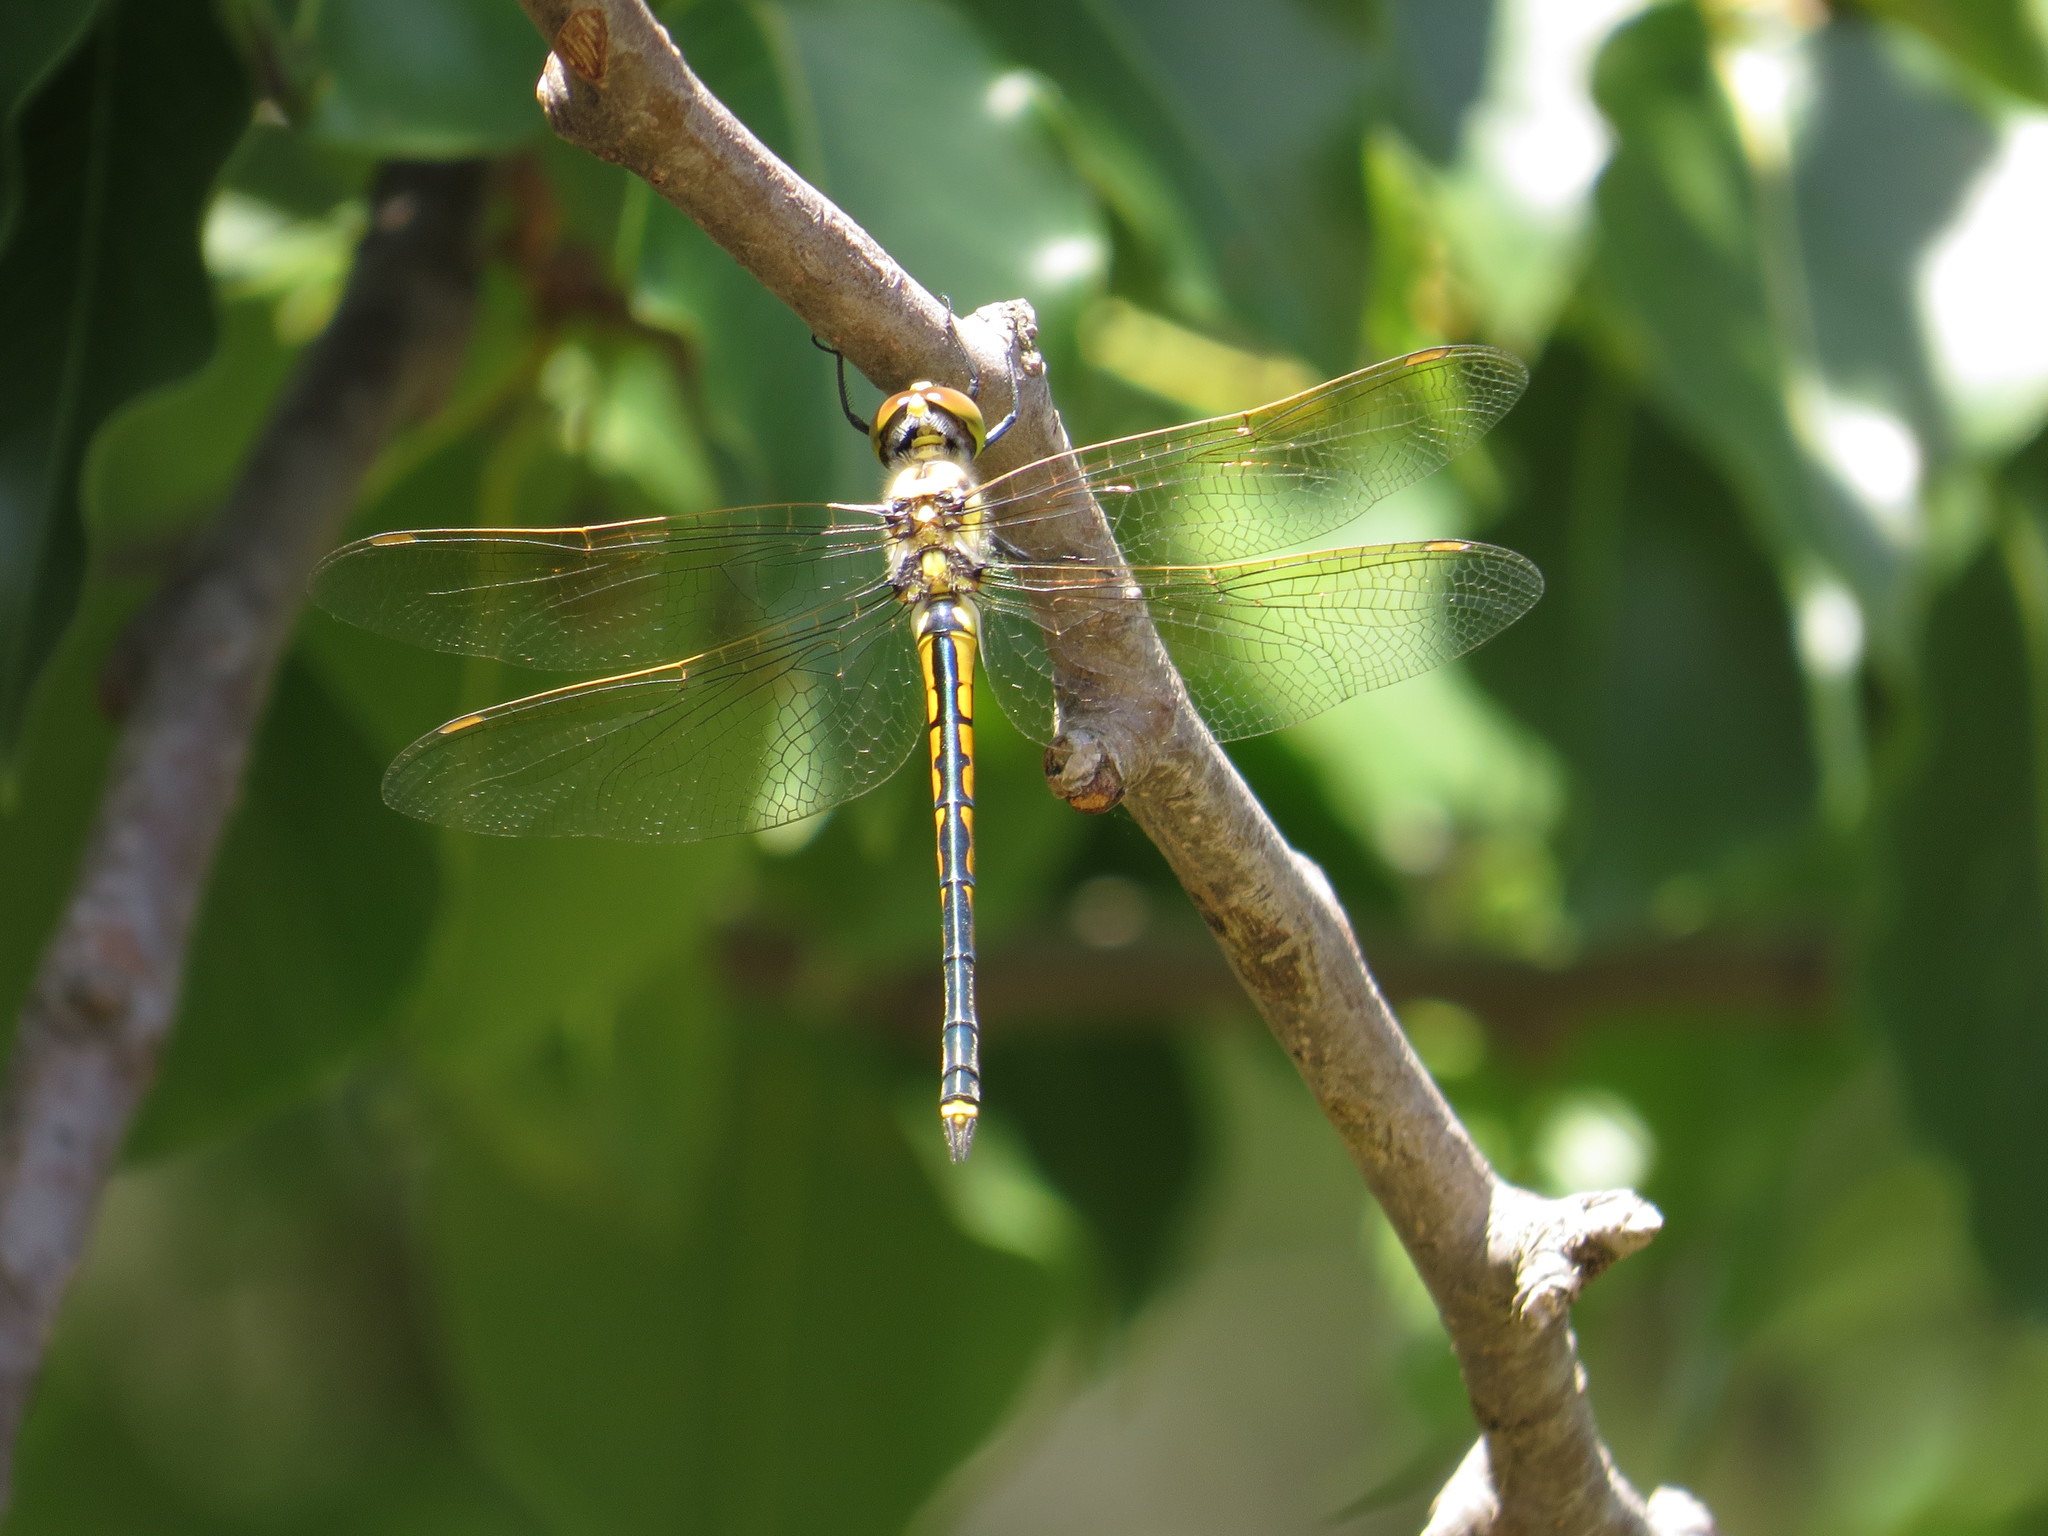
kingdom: Animalia
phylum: Arthropoda
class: Insecta
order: Odonata
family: Corduliidae
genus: Hemicordulia
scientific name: Hemicordulia tau
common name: Tau emerald
